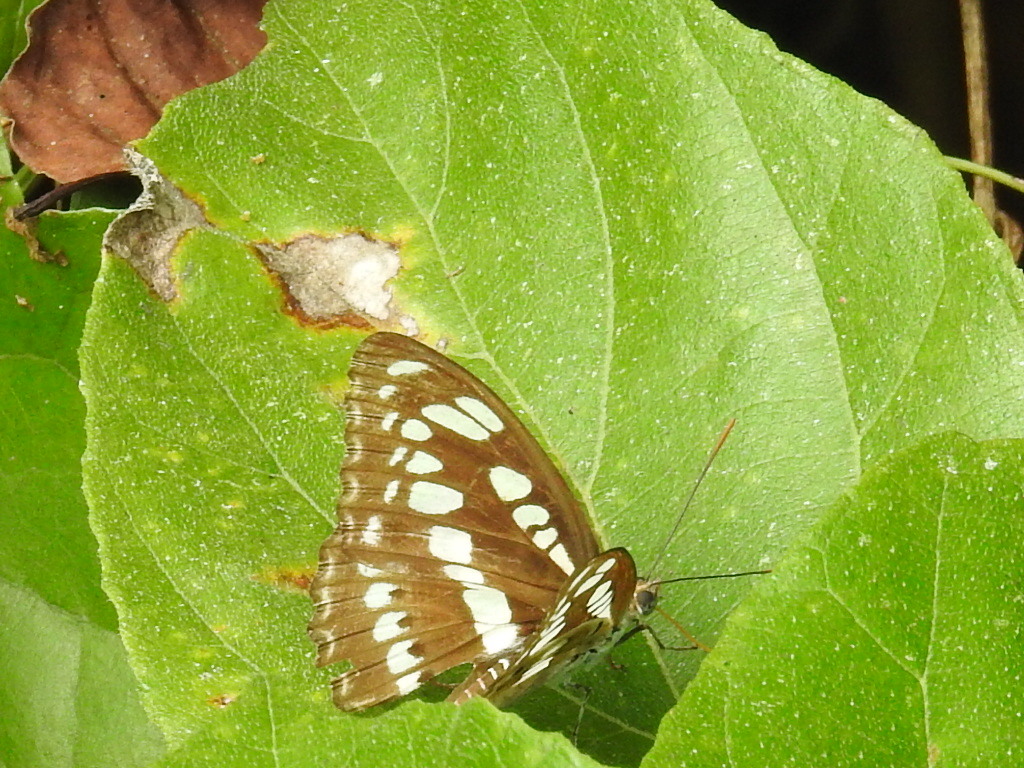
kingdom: Animalia
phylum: Arthropoda
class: Insecta
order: Lepidoptera
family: Nymphalidae
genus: Parathyma
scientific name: Parathyma perius
